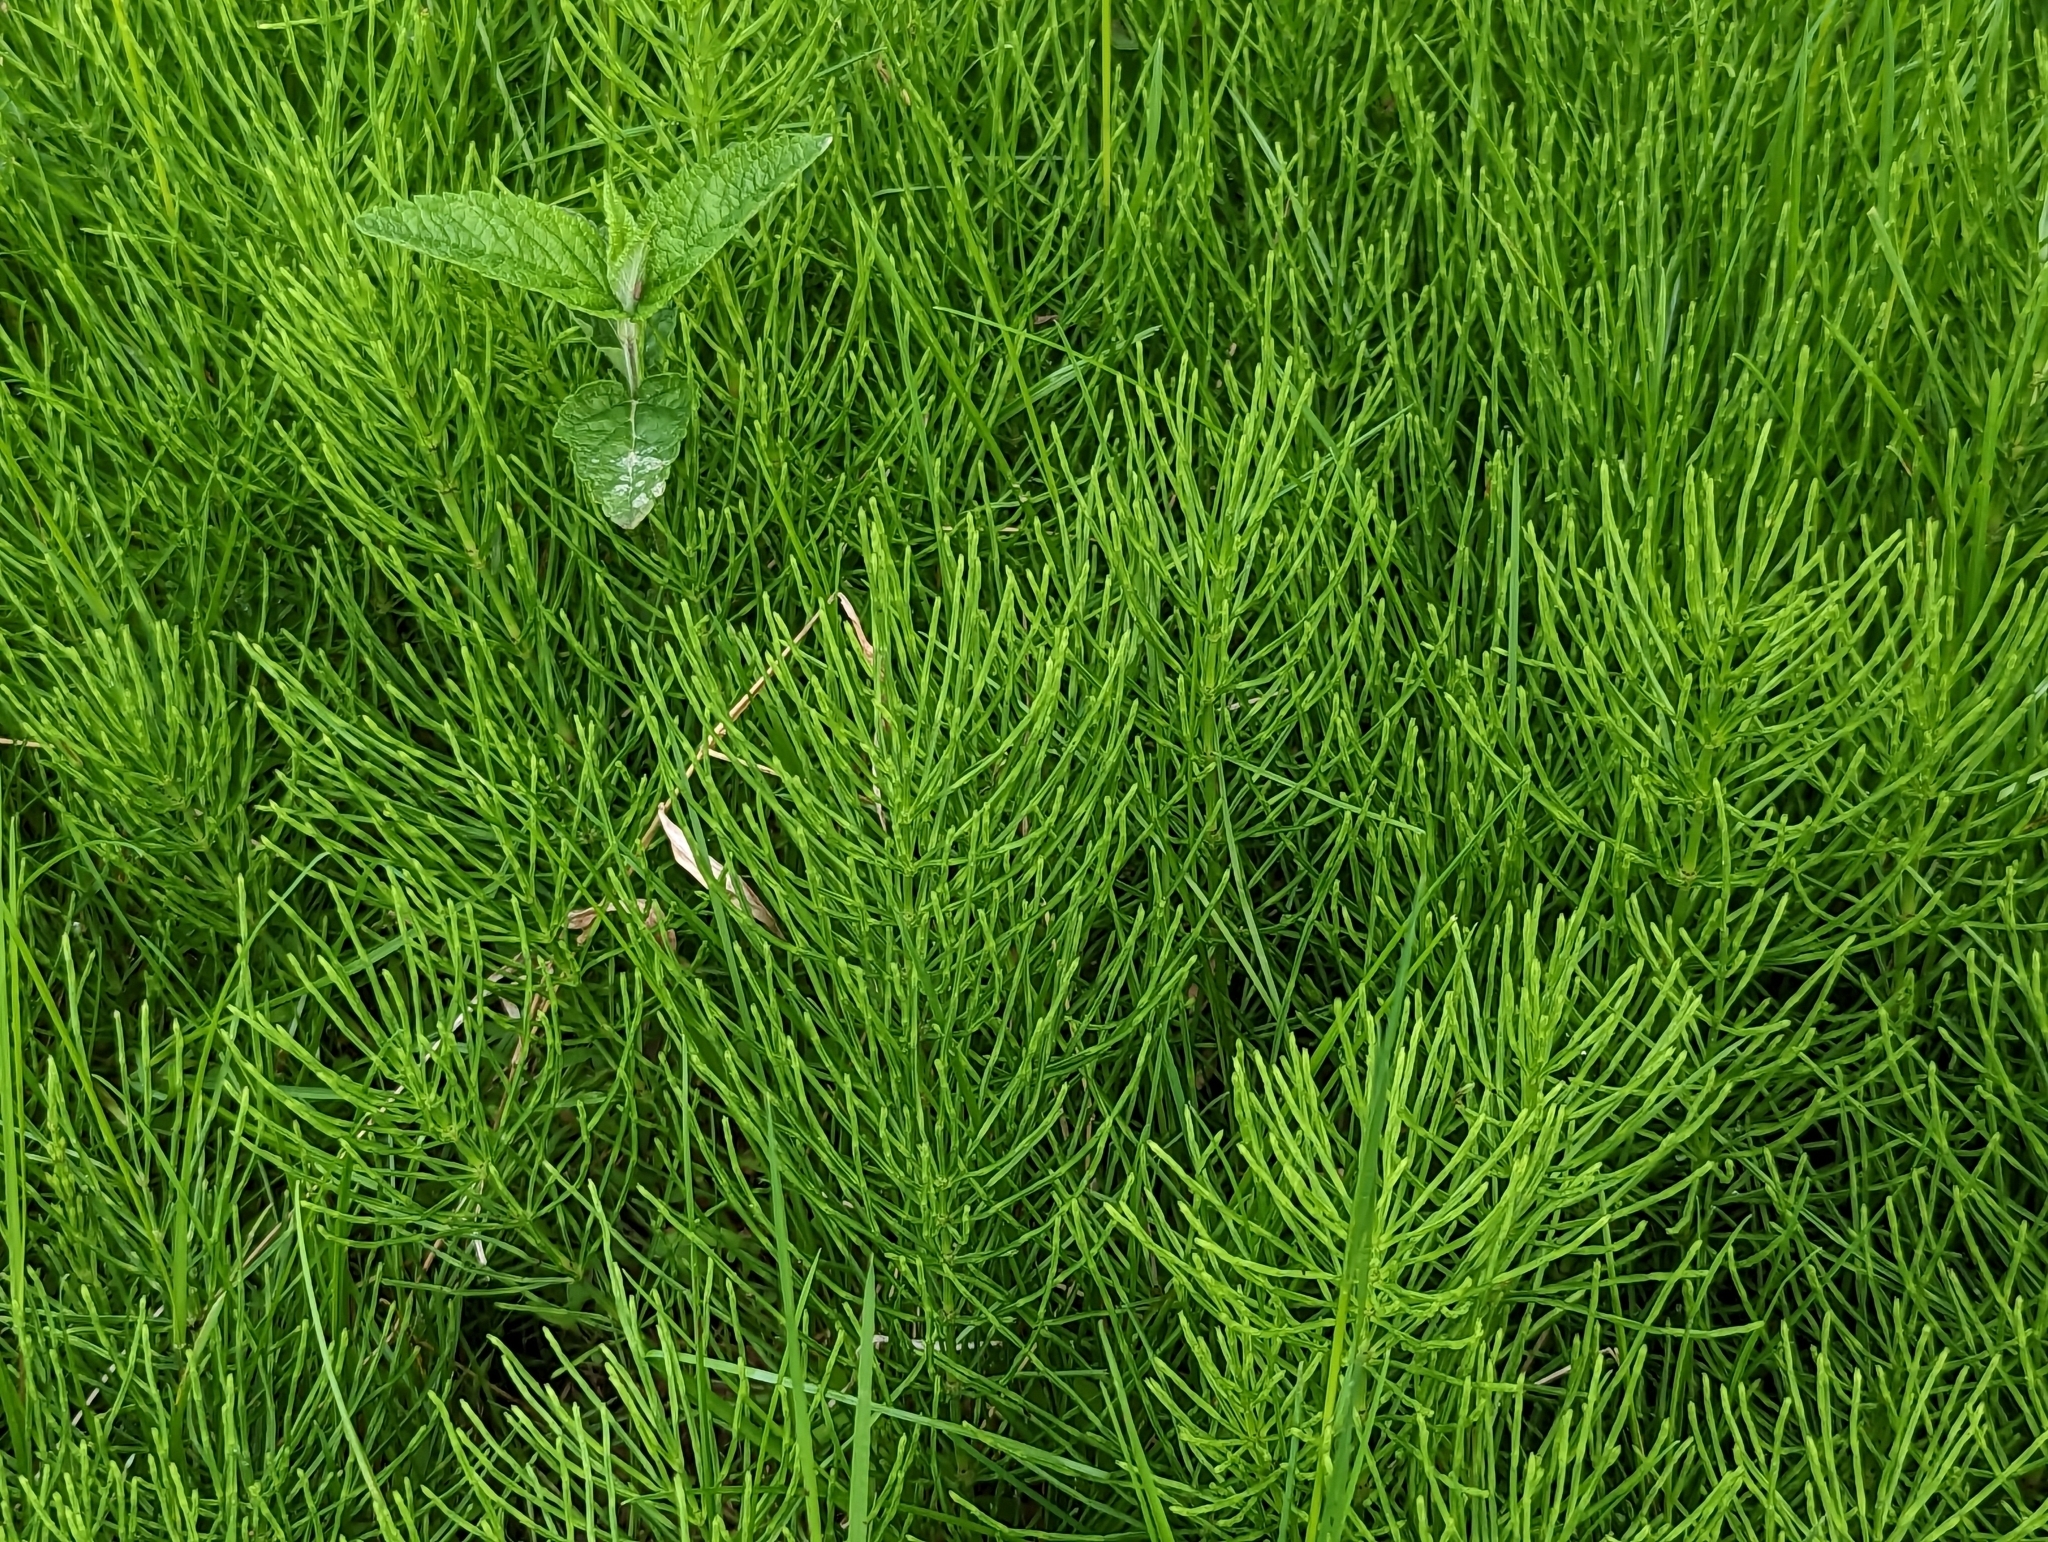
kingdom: Plantae
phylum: Tracheophyta
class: Polypodiopsida
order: Equisetales
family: Equisetaceae
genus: Equisetum
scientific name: Equisetum arvense
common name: Field horsetail
